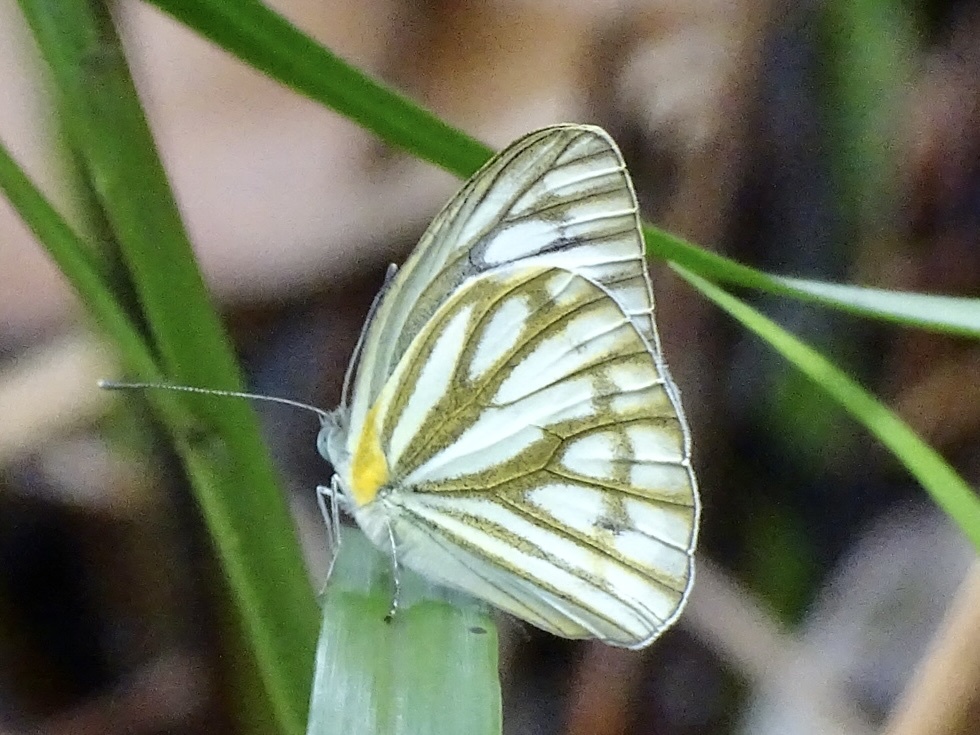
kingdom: Animalia
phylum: Arthropoda
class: Insecta
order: Lepidoptera
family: Pieridae
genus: Cepora
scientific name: Cepora nerissa
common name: Common gull
